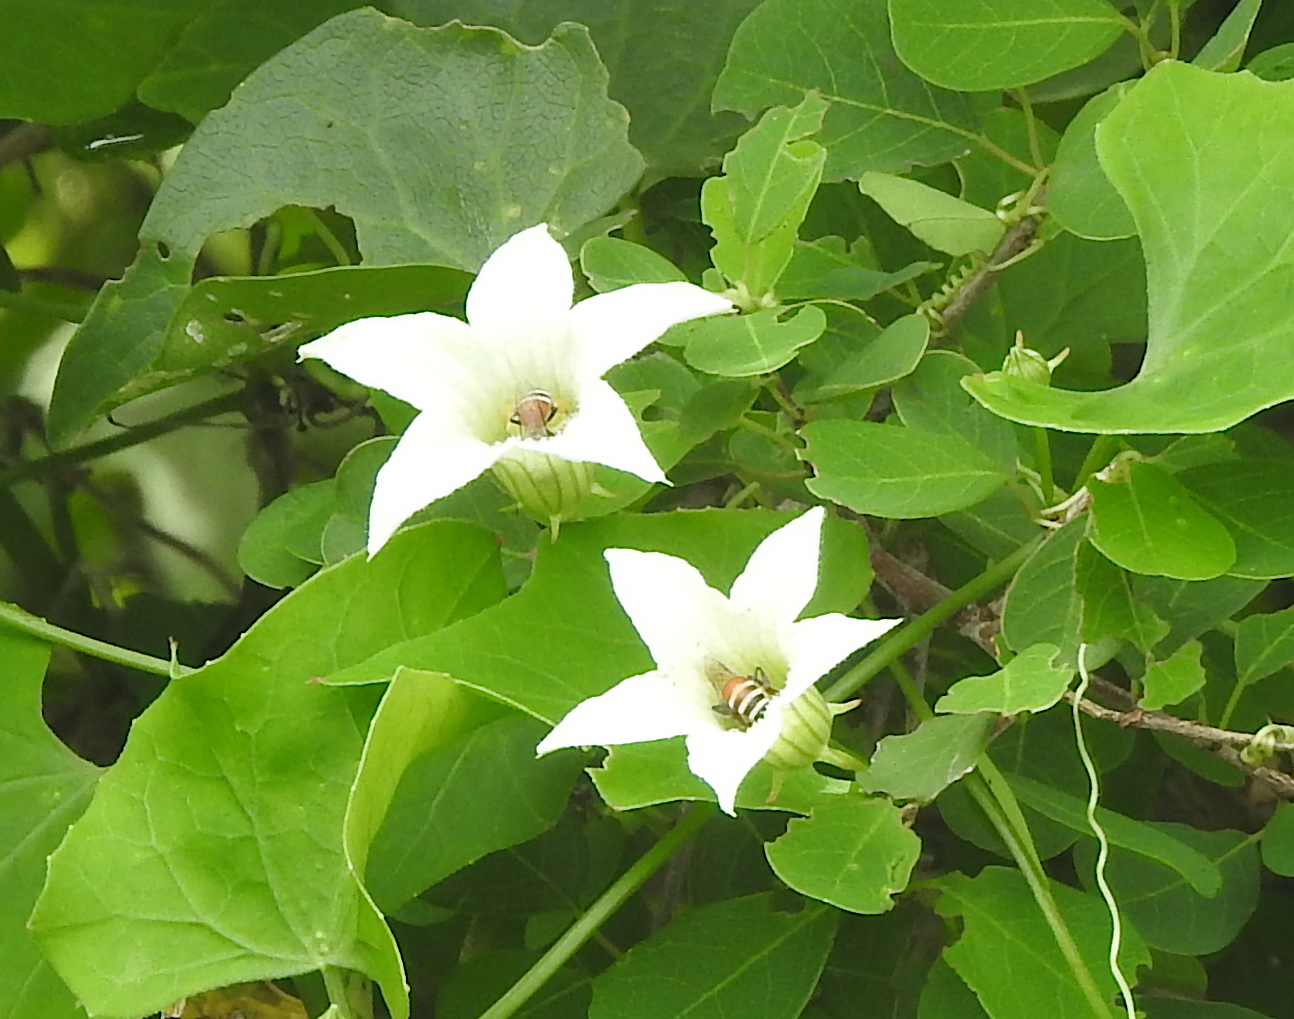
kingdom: Animalia
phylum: Arthropoda
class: Insecta
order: Hymenoptera
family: Apidae
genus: Apis
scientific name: Apis florea
